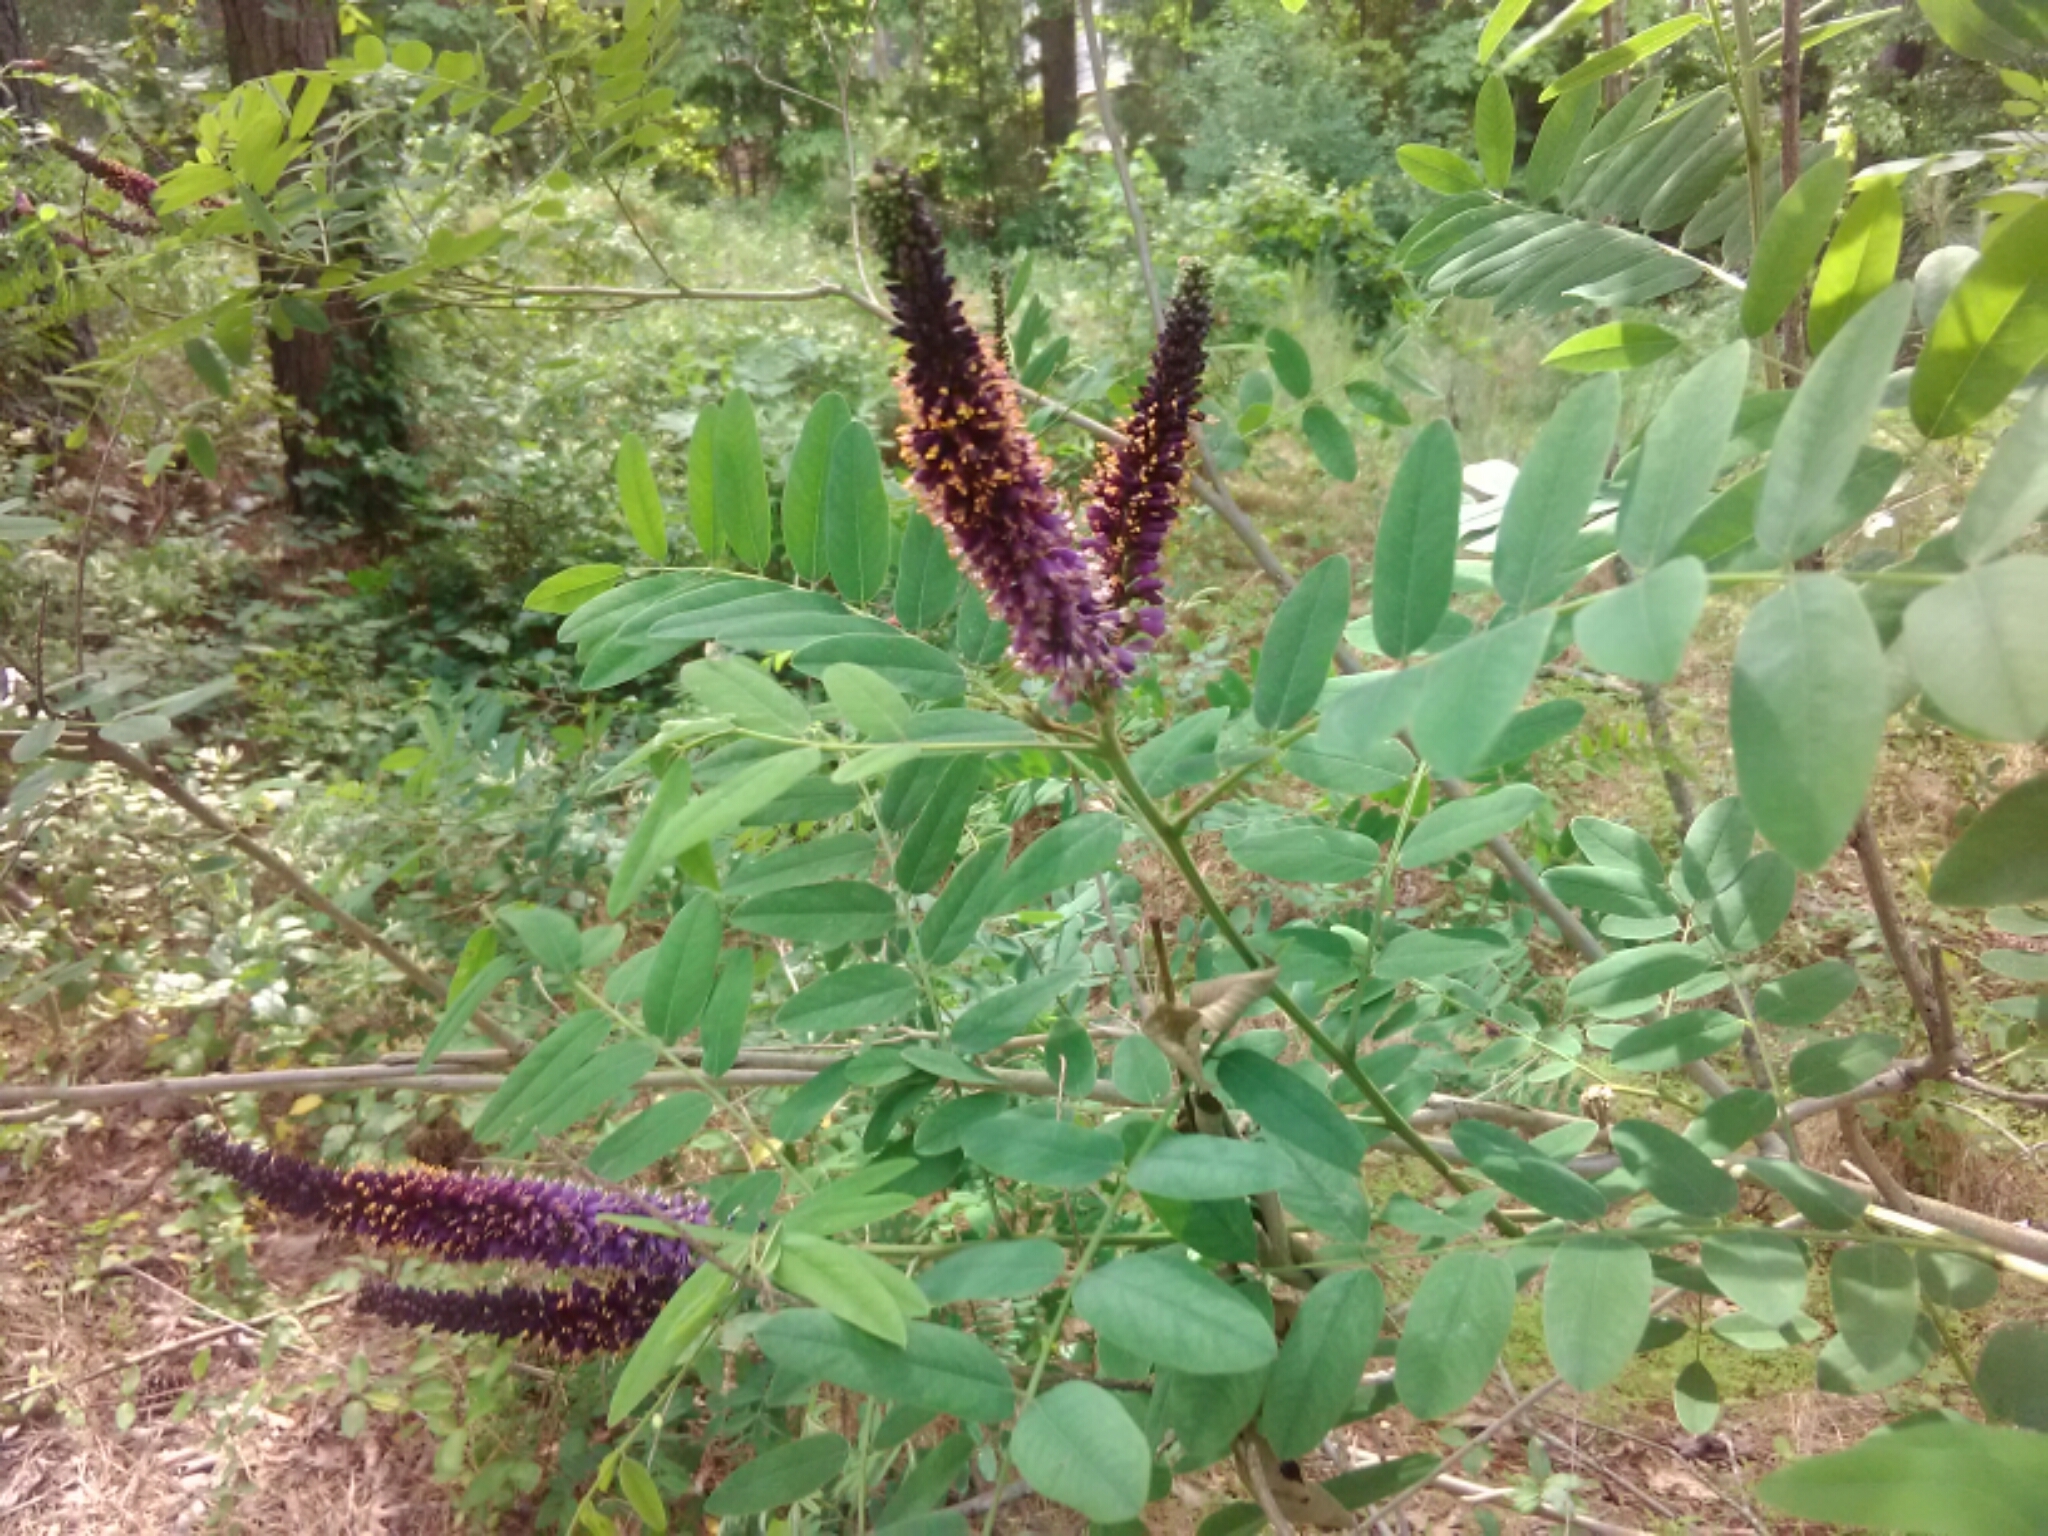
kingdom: Plantae
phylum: Tracheophyta
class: Magnoliopsida
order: Fabales
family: Fabaceae
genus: Amorpha
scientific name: Amorpha fruticosa
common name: False indigo
